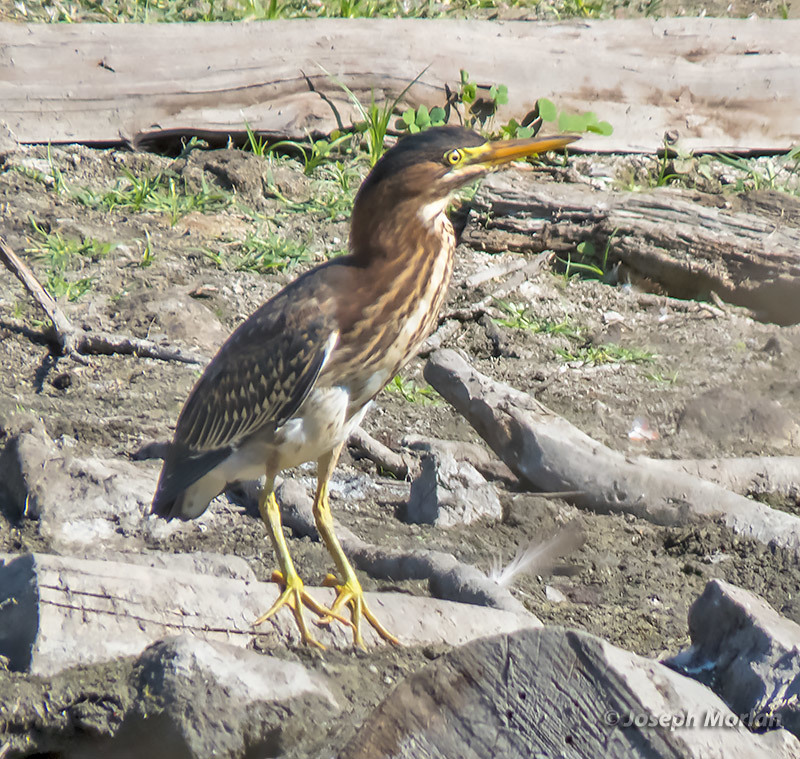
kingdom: Animalia
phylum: Chordata
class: Aves
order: Pelecaniformes
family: Ardeidae
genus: Butorides
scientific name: Butorides virescens
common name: Green heron
